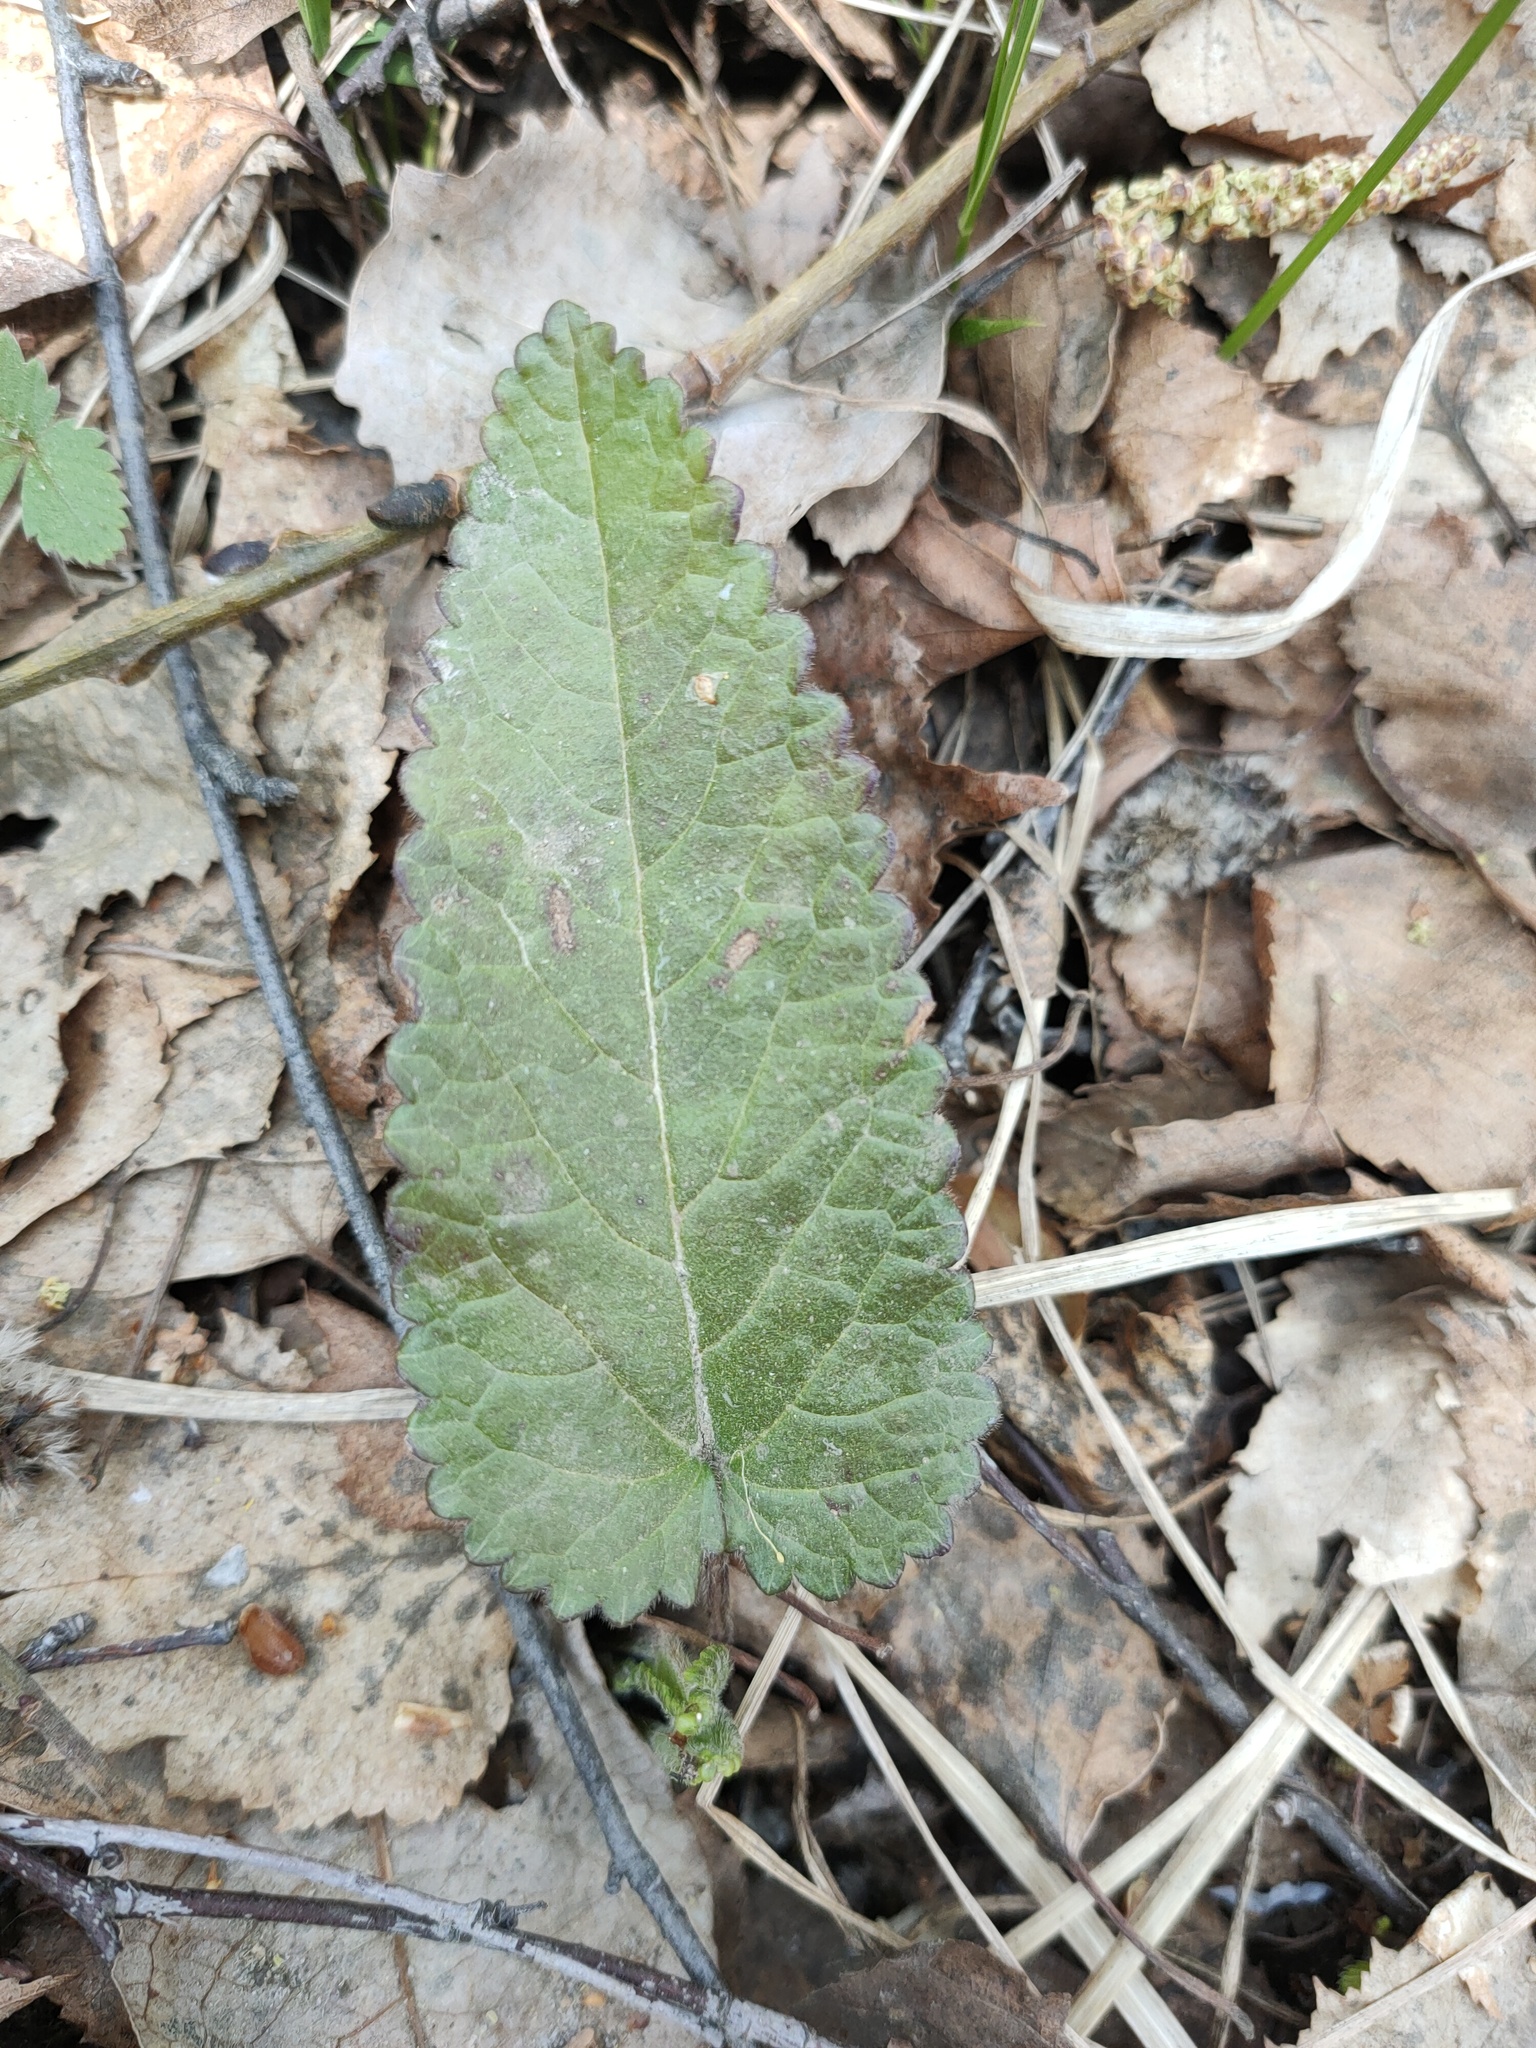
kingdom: Plantae
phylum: Tracheophyta
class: Magnoliopsida
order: Lamiales
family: Lamiaceae
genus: Betonica
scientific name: Betonica officinalis
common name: Bishop's-wort
